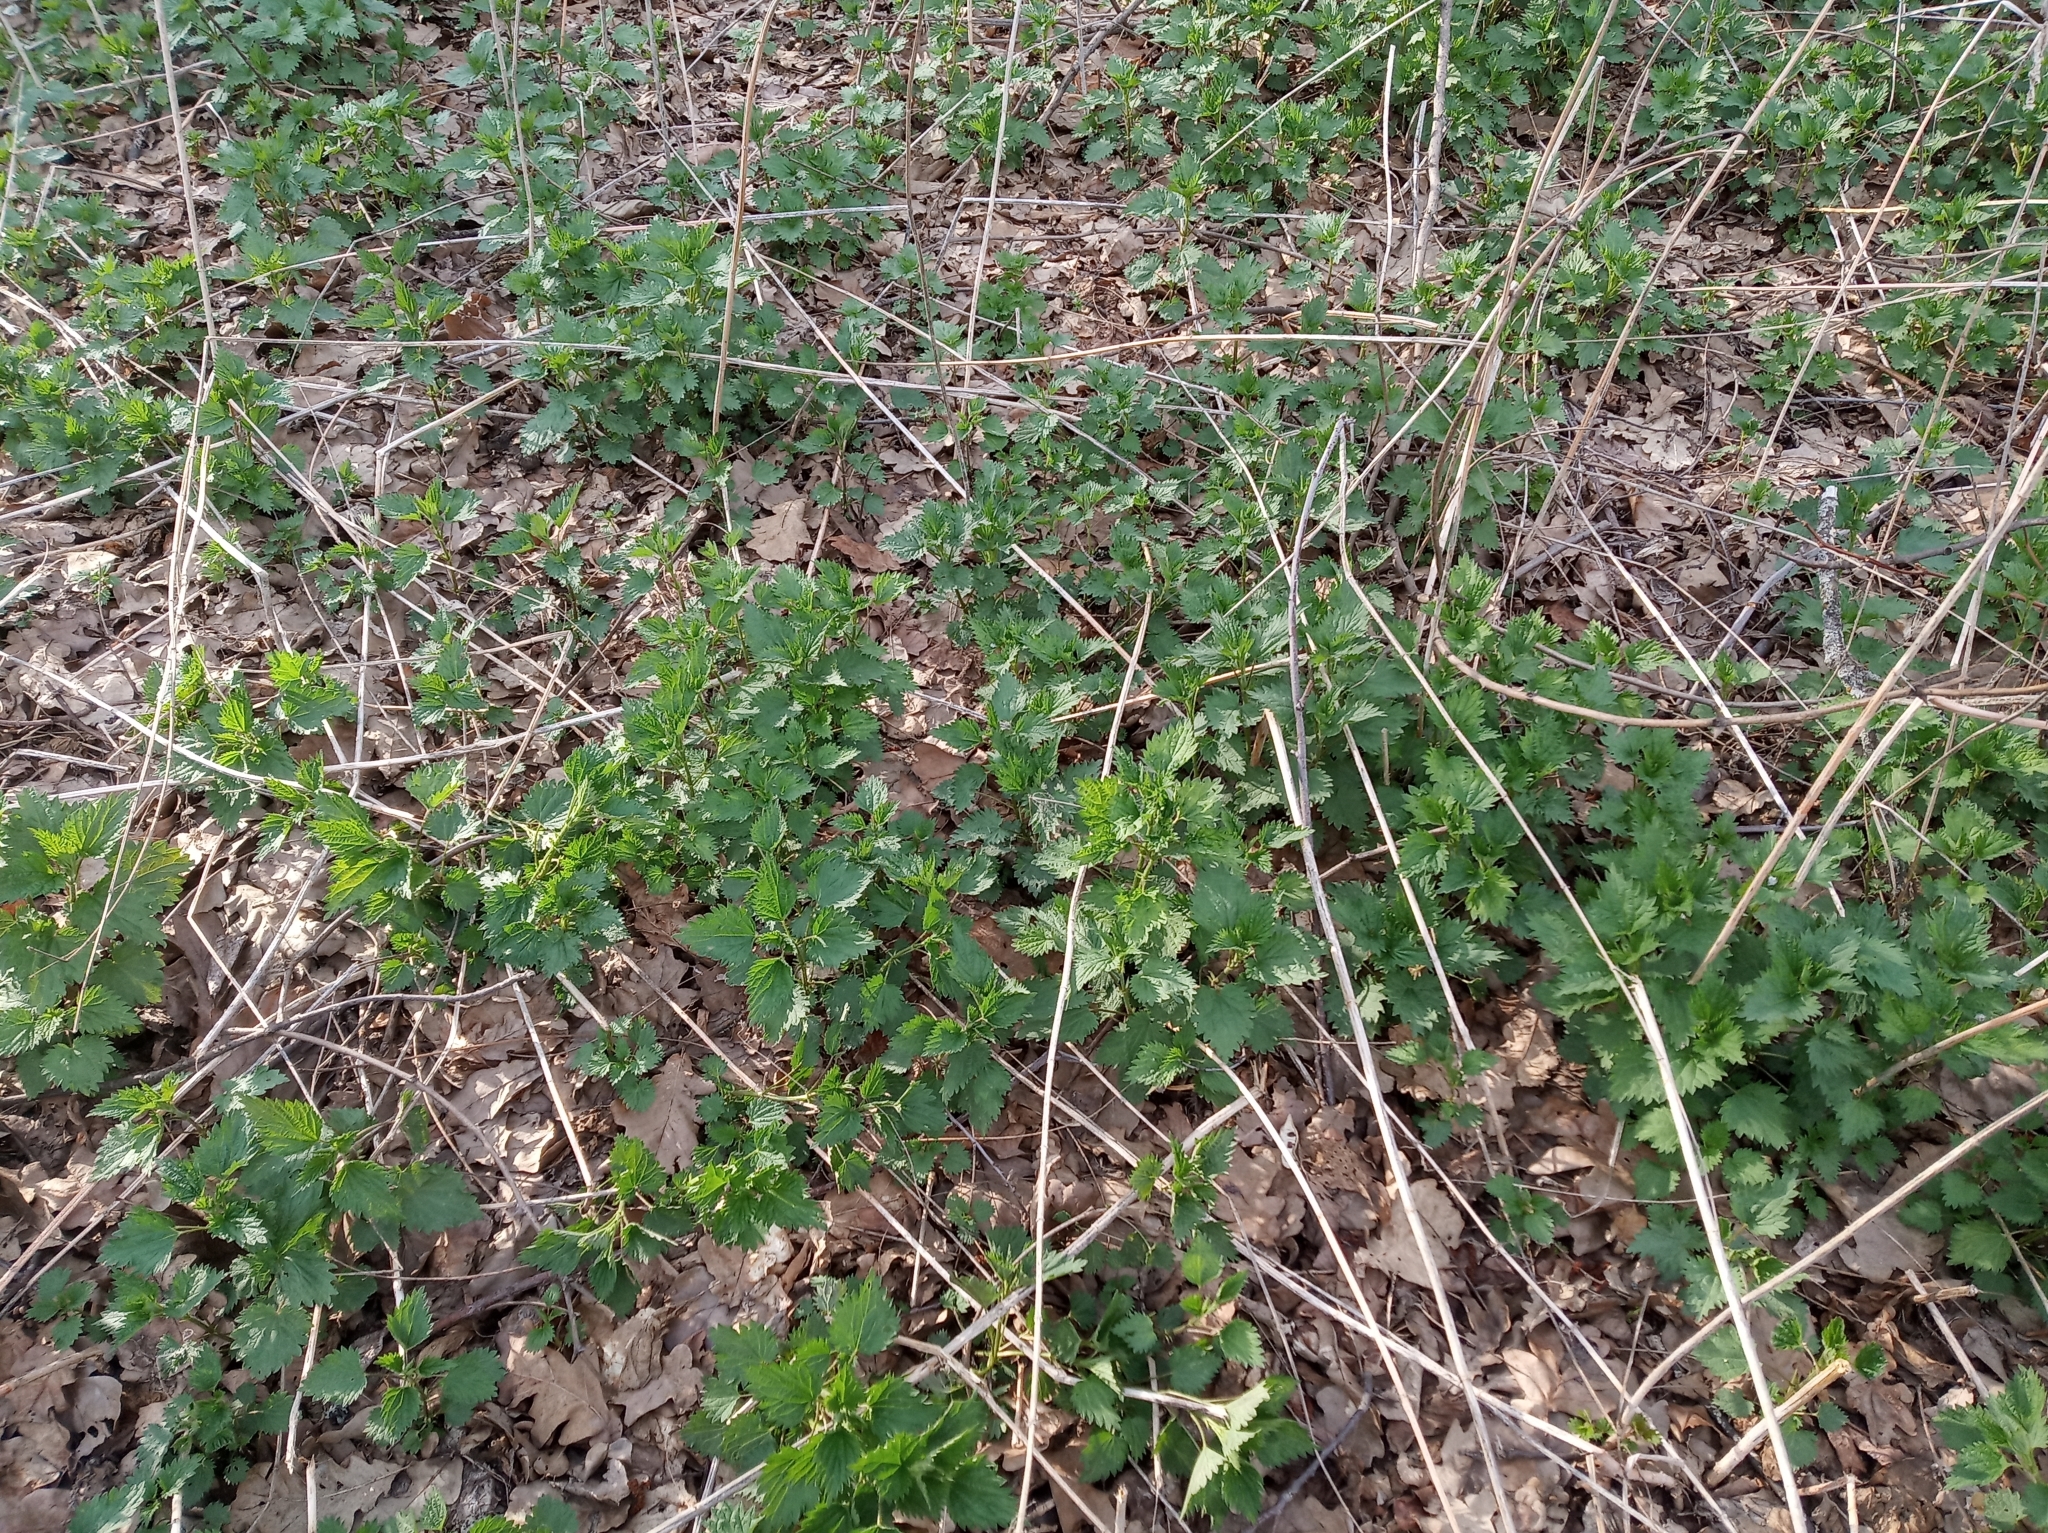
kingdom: Plantae
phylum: Tracheophyta
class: Magnoliopsida
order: Rosales
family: Urticaceae
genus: Urtica
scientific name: Urtica dioica
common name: Common nettle
